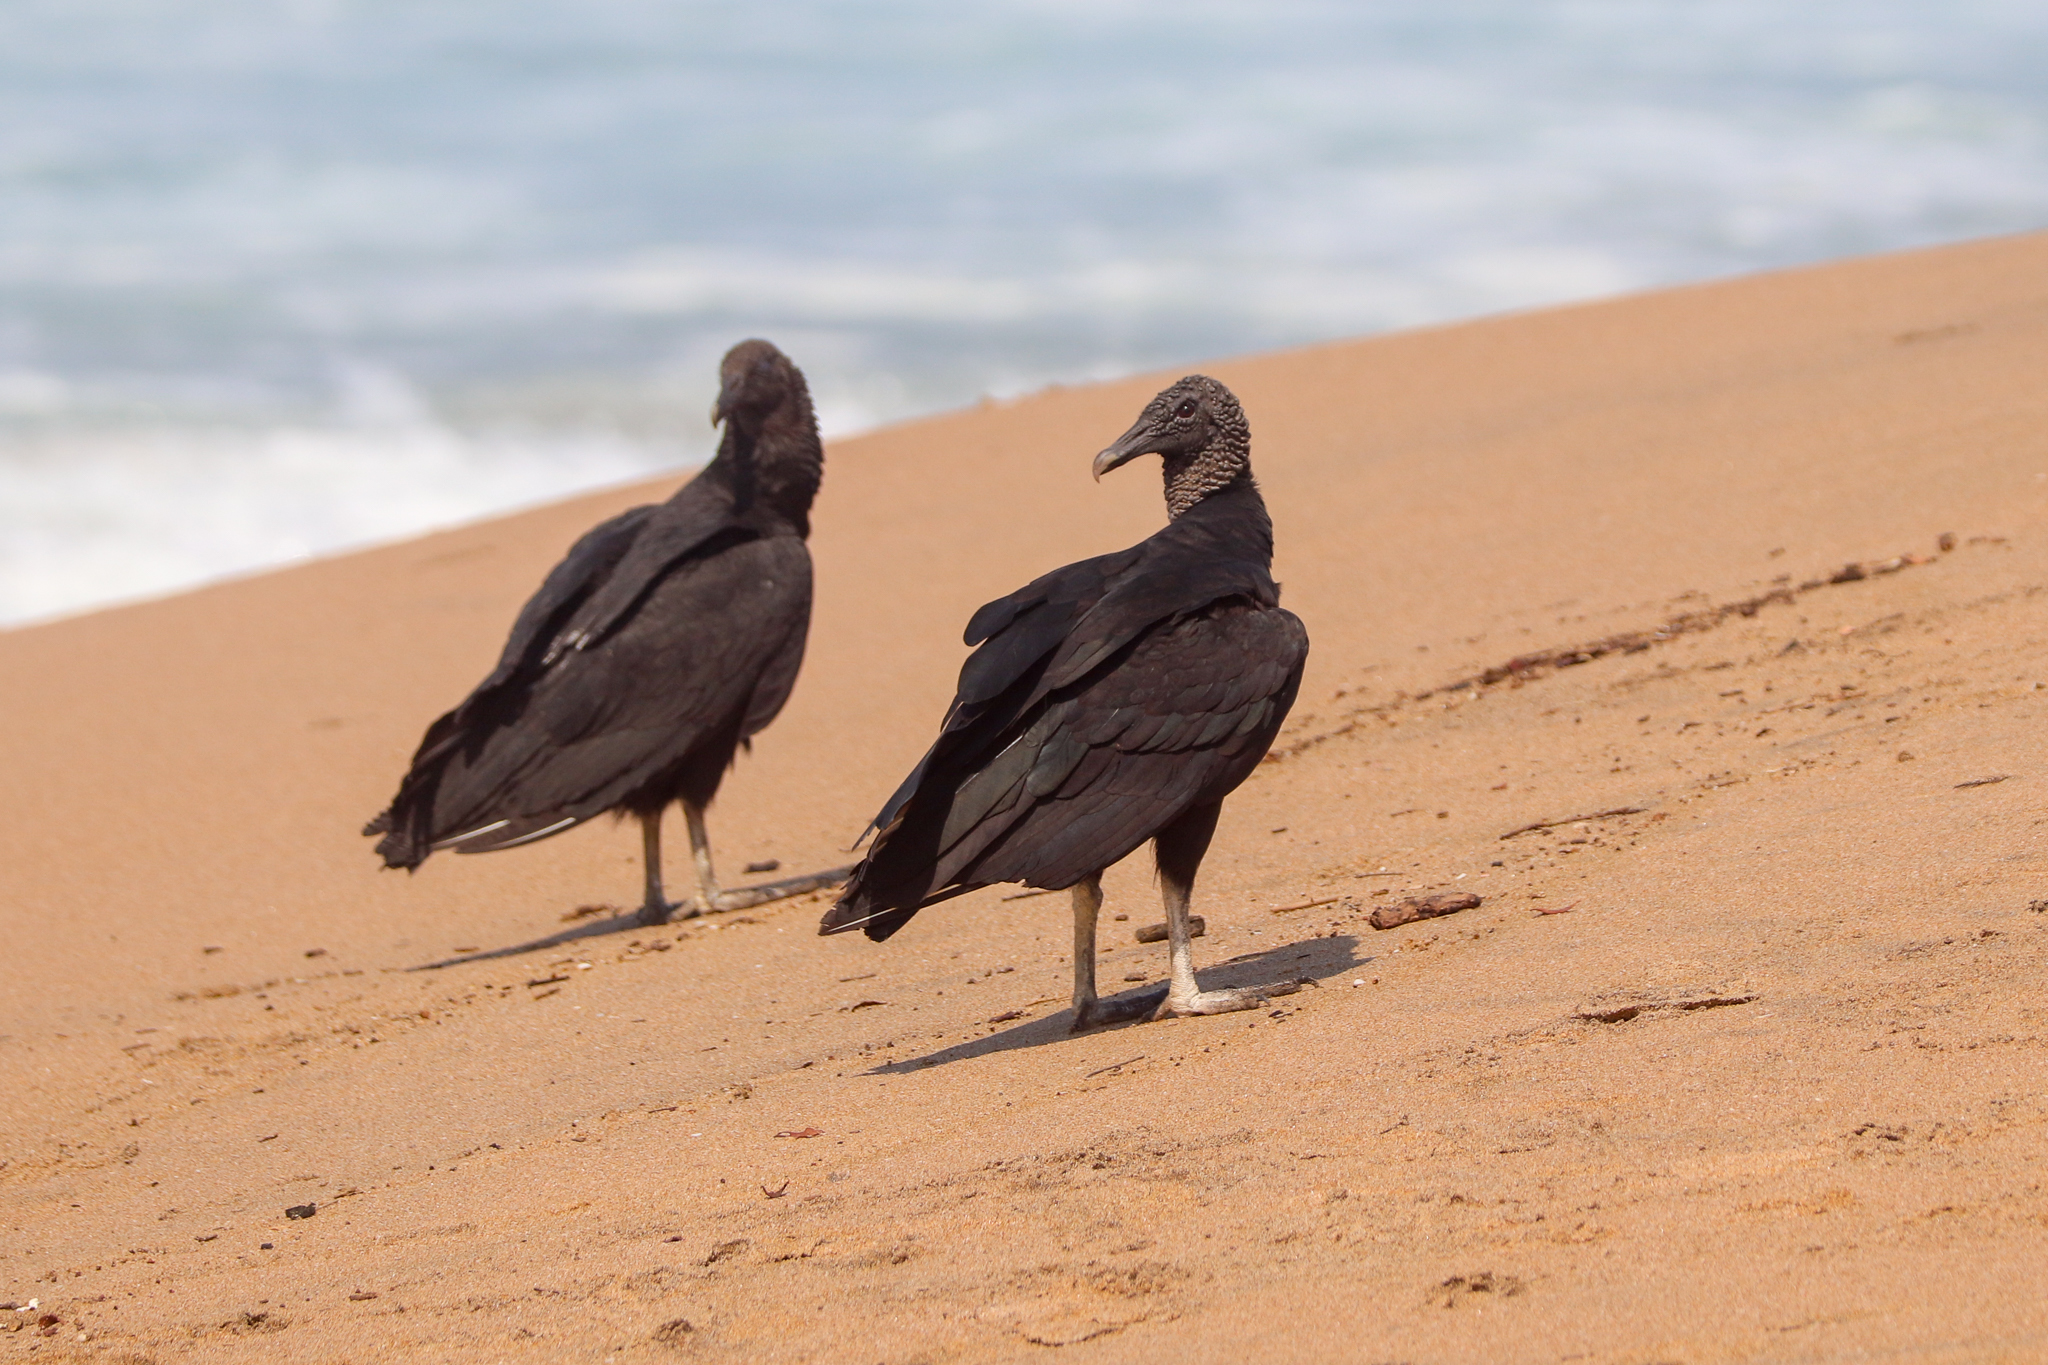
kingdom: Animalia
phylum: Chordata
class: Aves
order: Accipitriformes
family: Cathartidae
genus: Coragyps
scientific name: Coragyps atratus
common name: Black vulture
